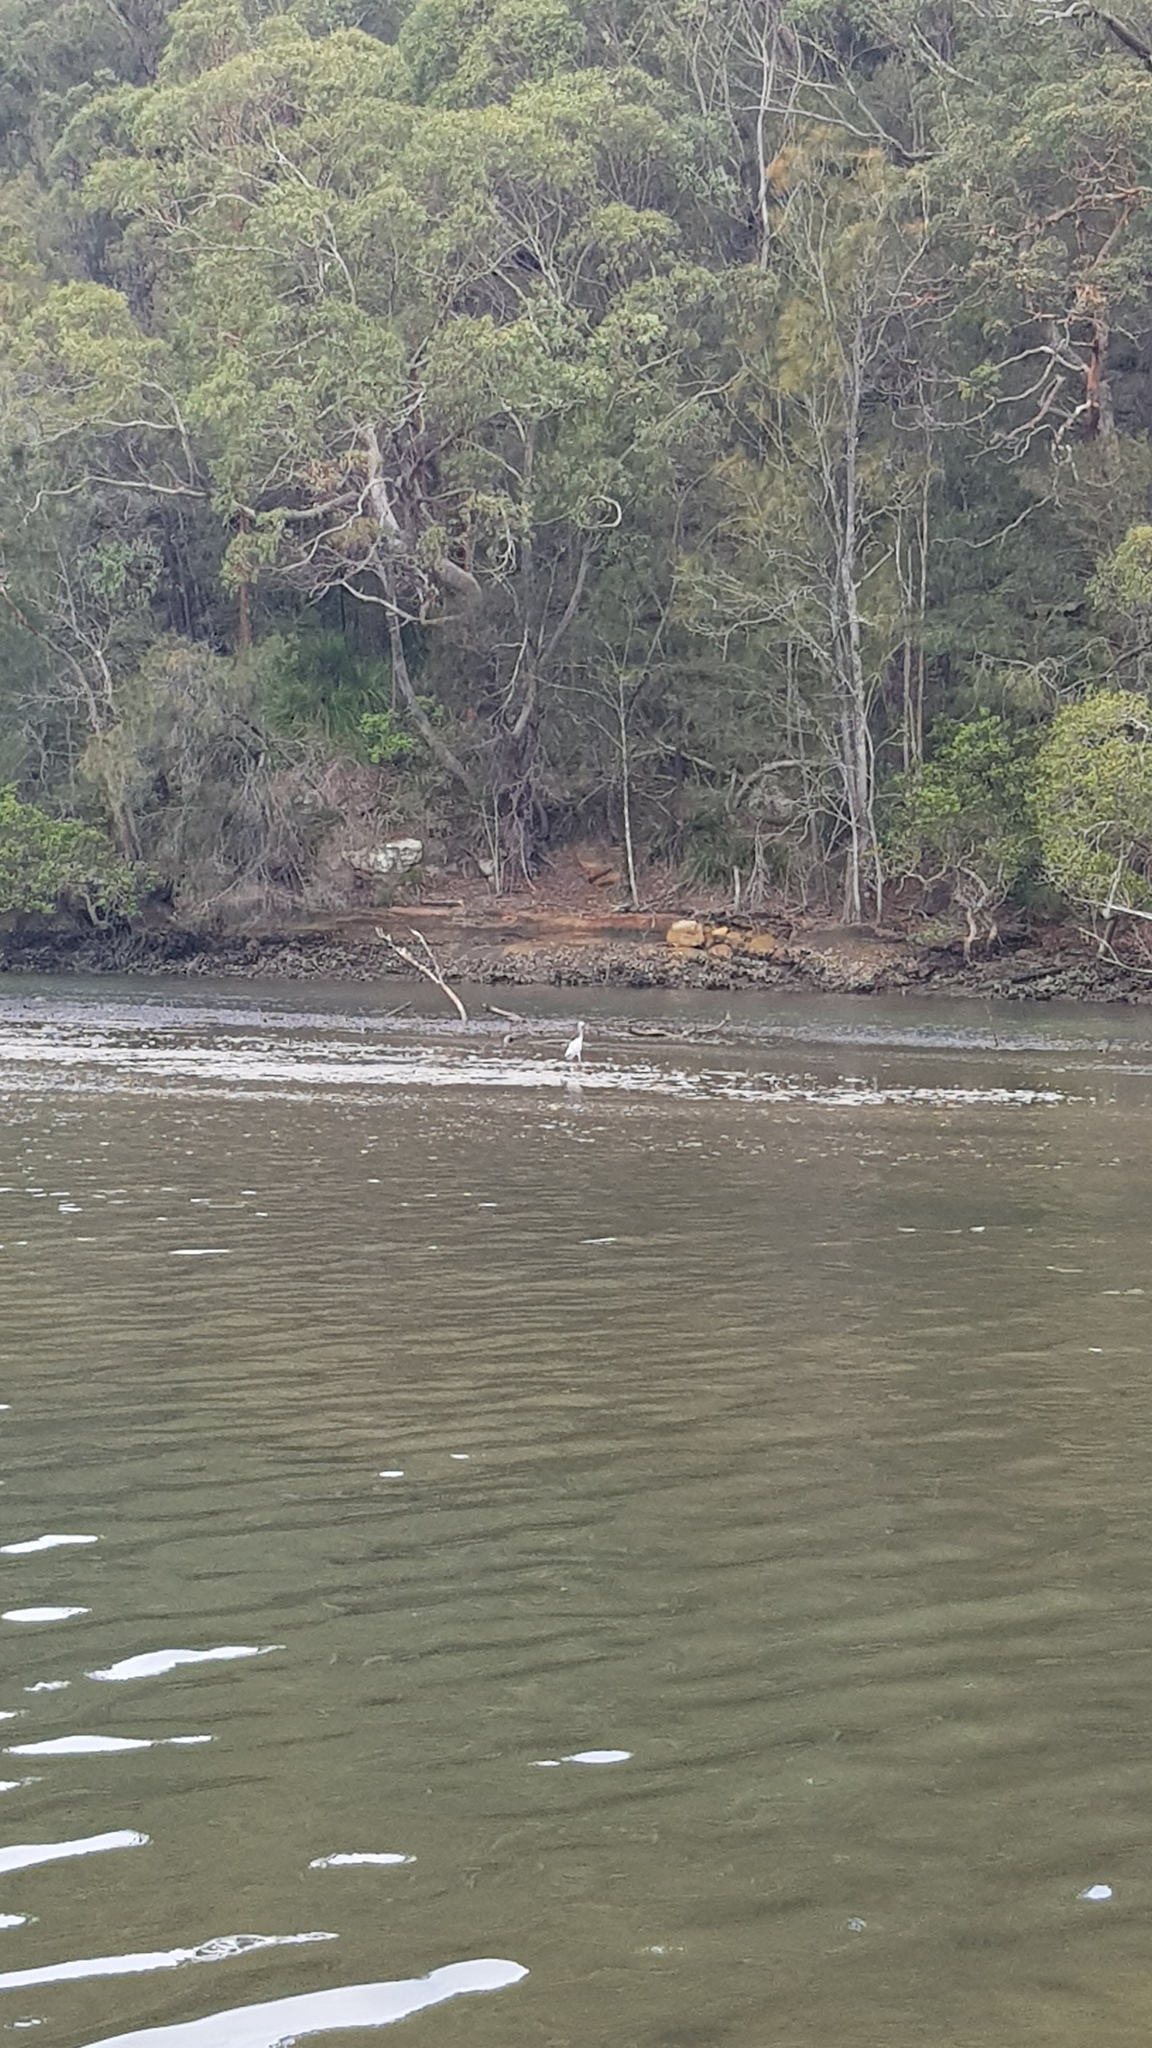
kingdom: Animalia
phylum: Chordata
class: Aves
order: Pelecaniformes
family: Ardeidae
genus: Egretta
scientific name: Egretta novaehollandiae
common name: White-faced heron
